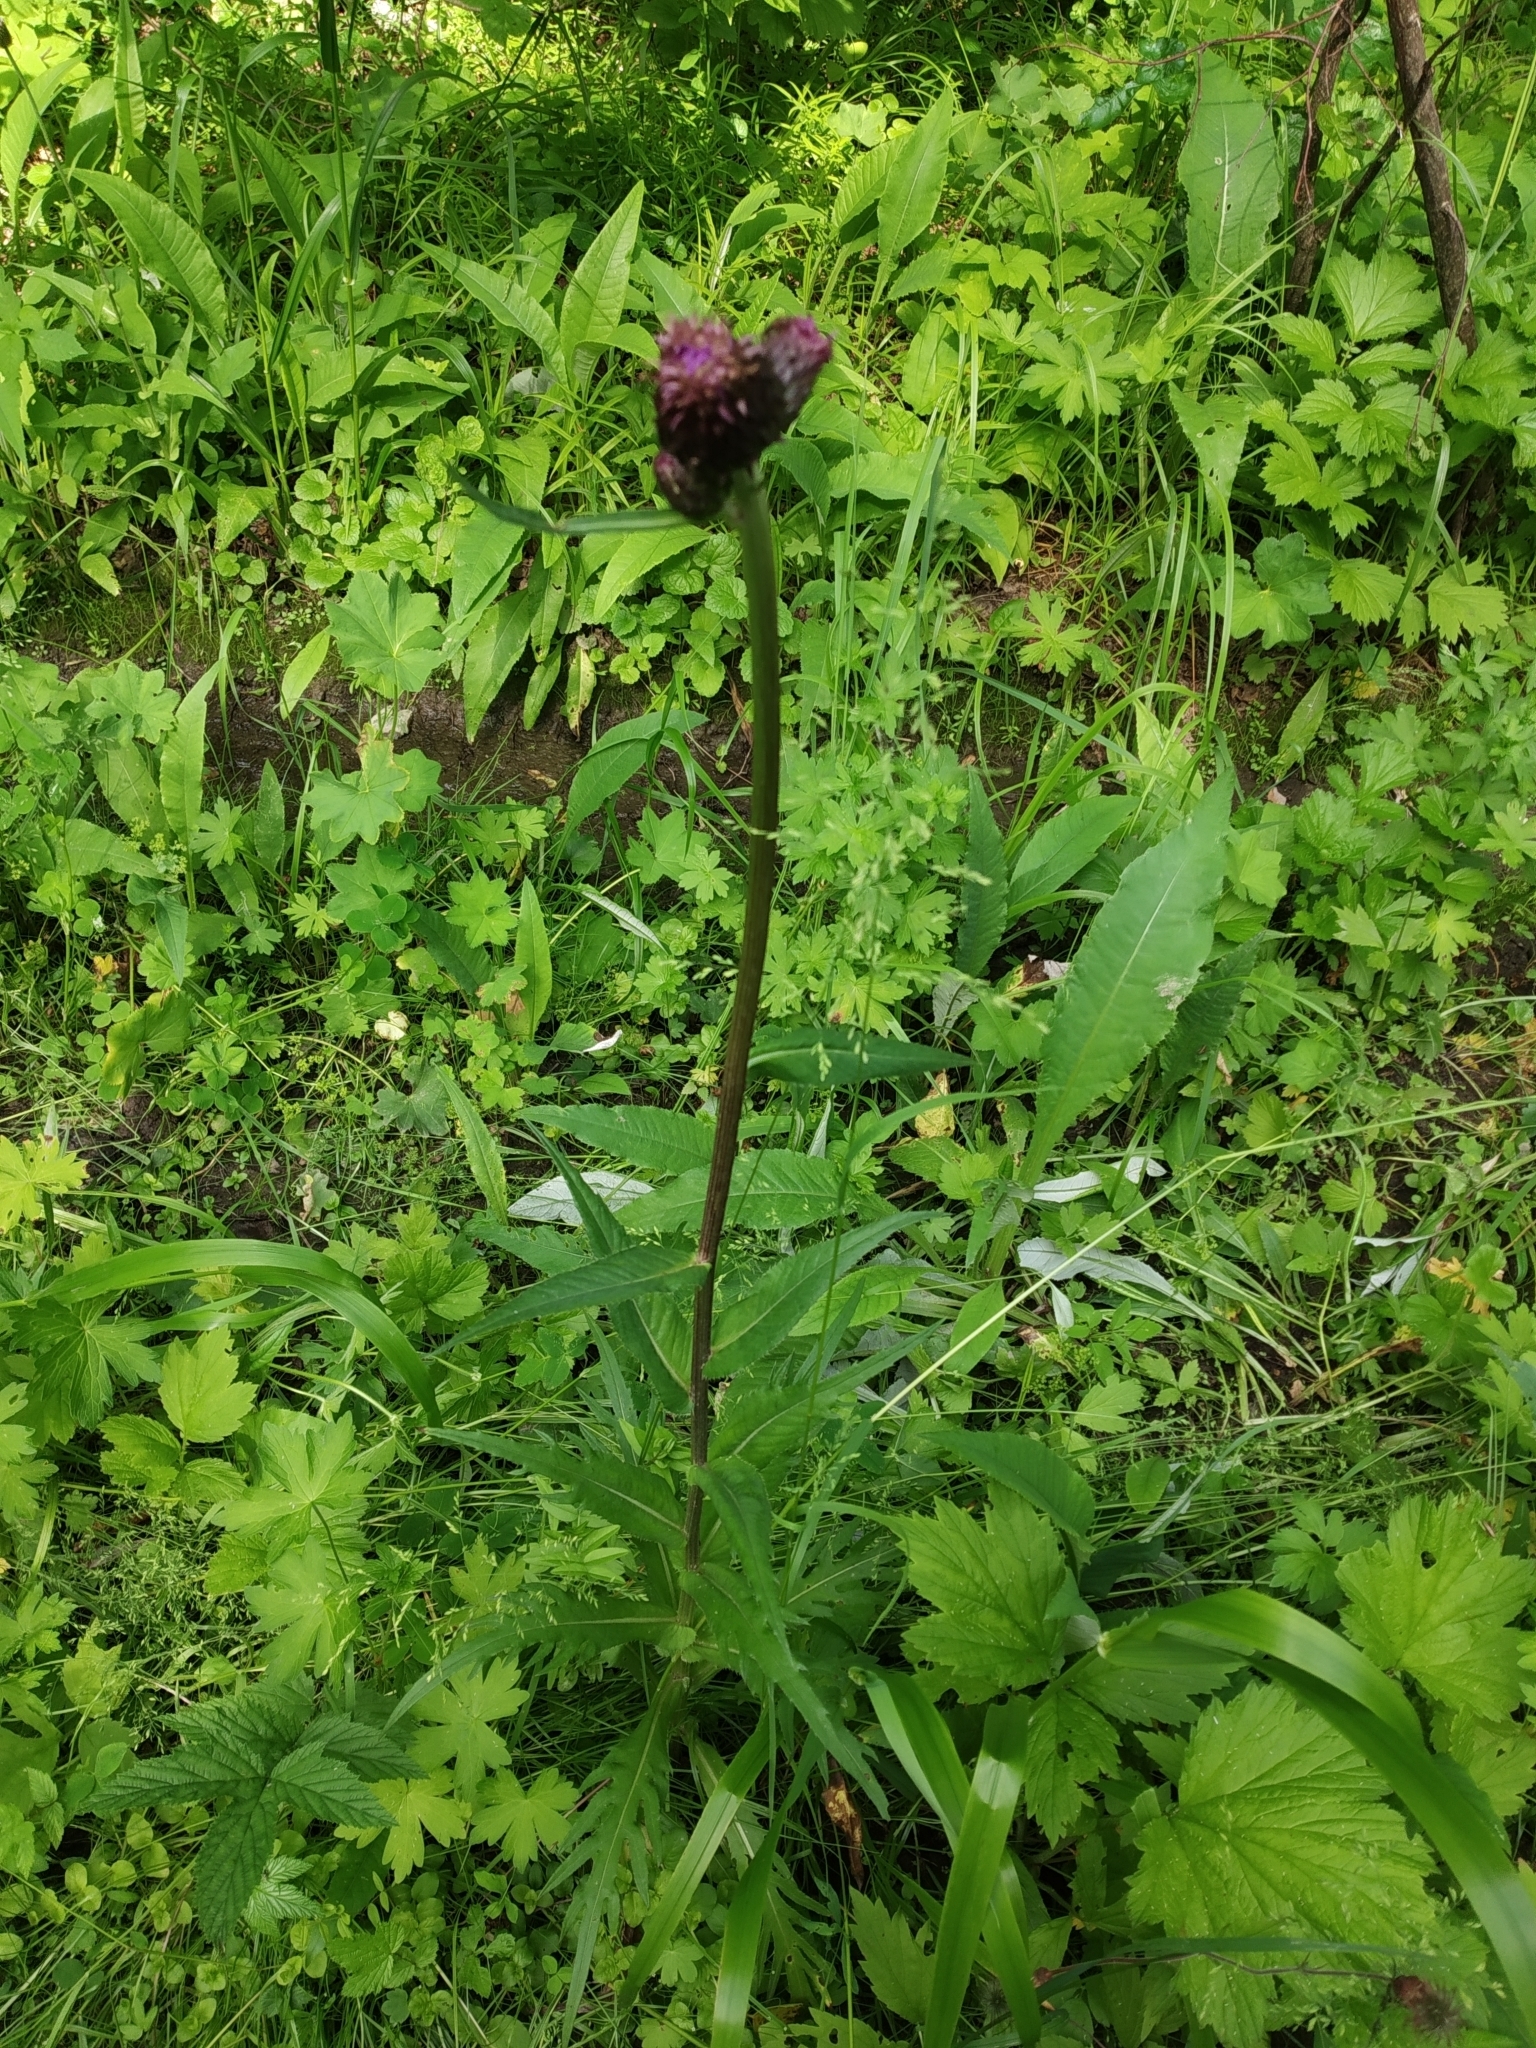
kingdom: Plantae
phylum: Tracheophyta
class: Magnoliopsida
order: Asterales
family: Asteraceae
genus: Cirsium
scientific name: Cirsium heterophyllum
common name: Melancholy thistle
